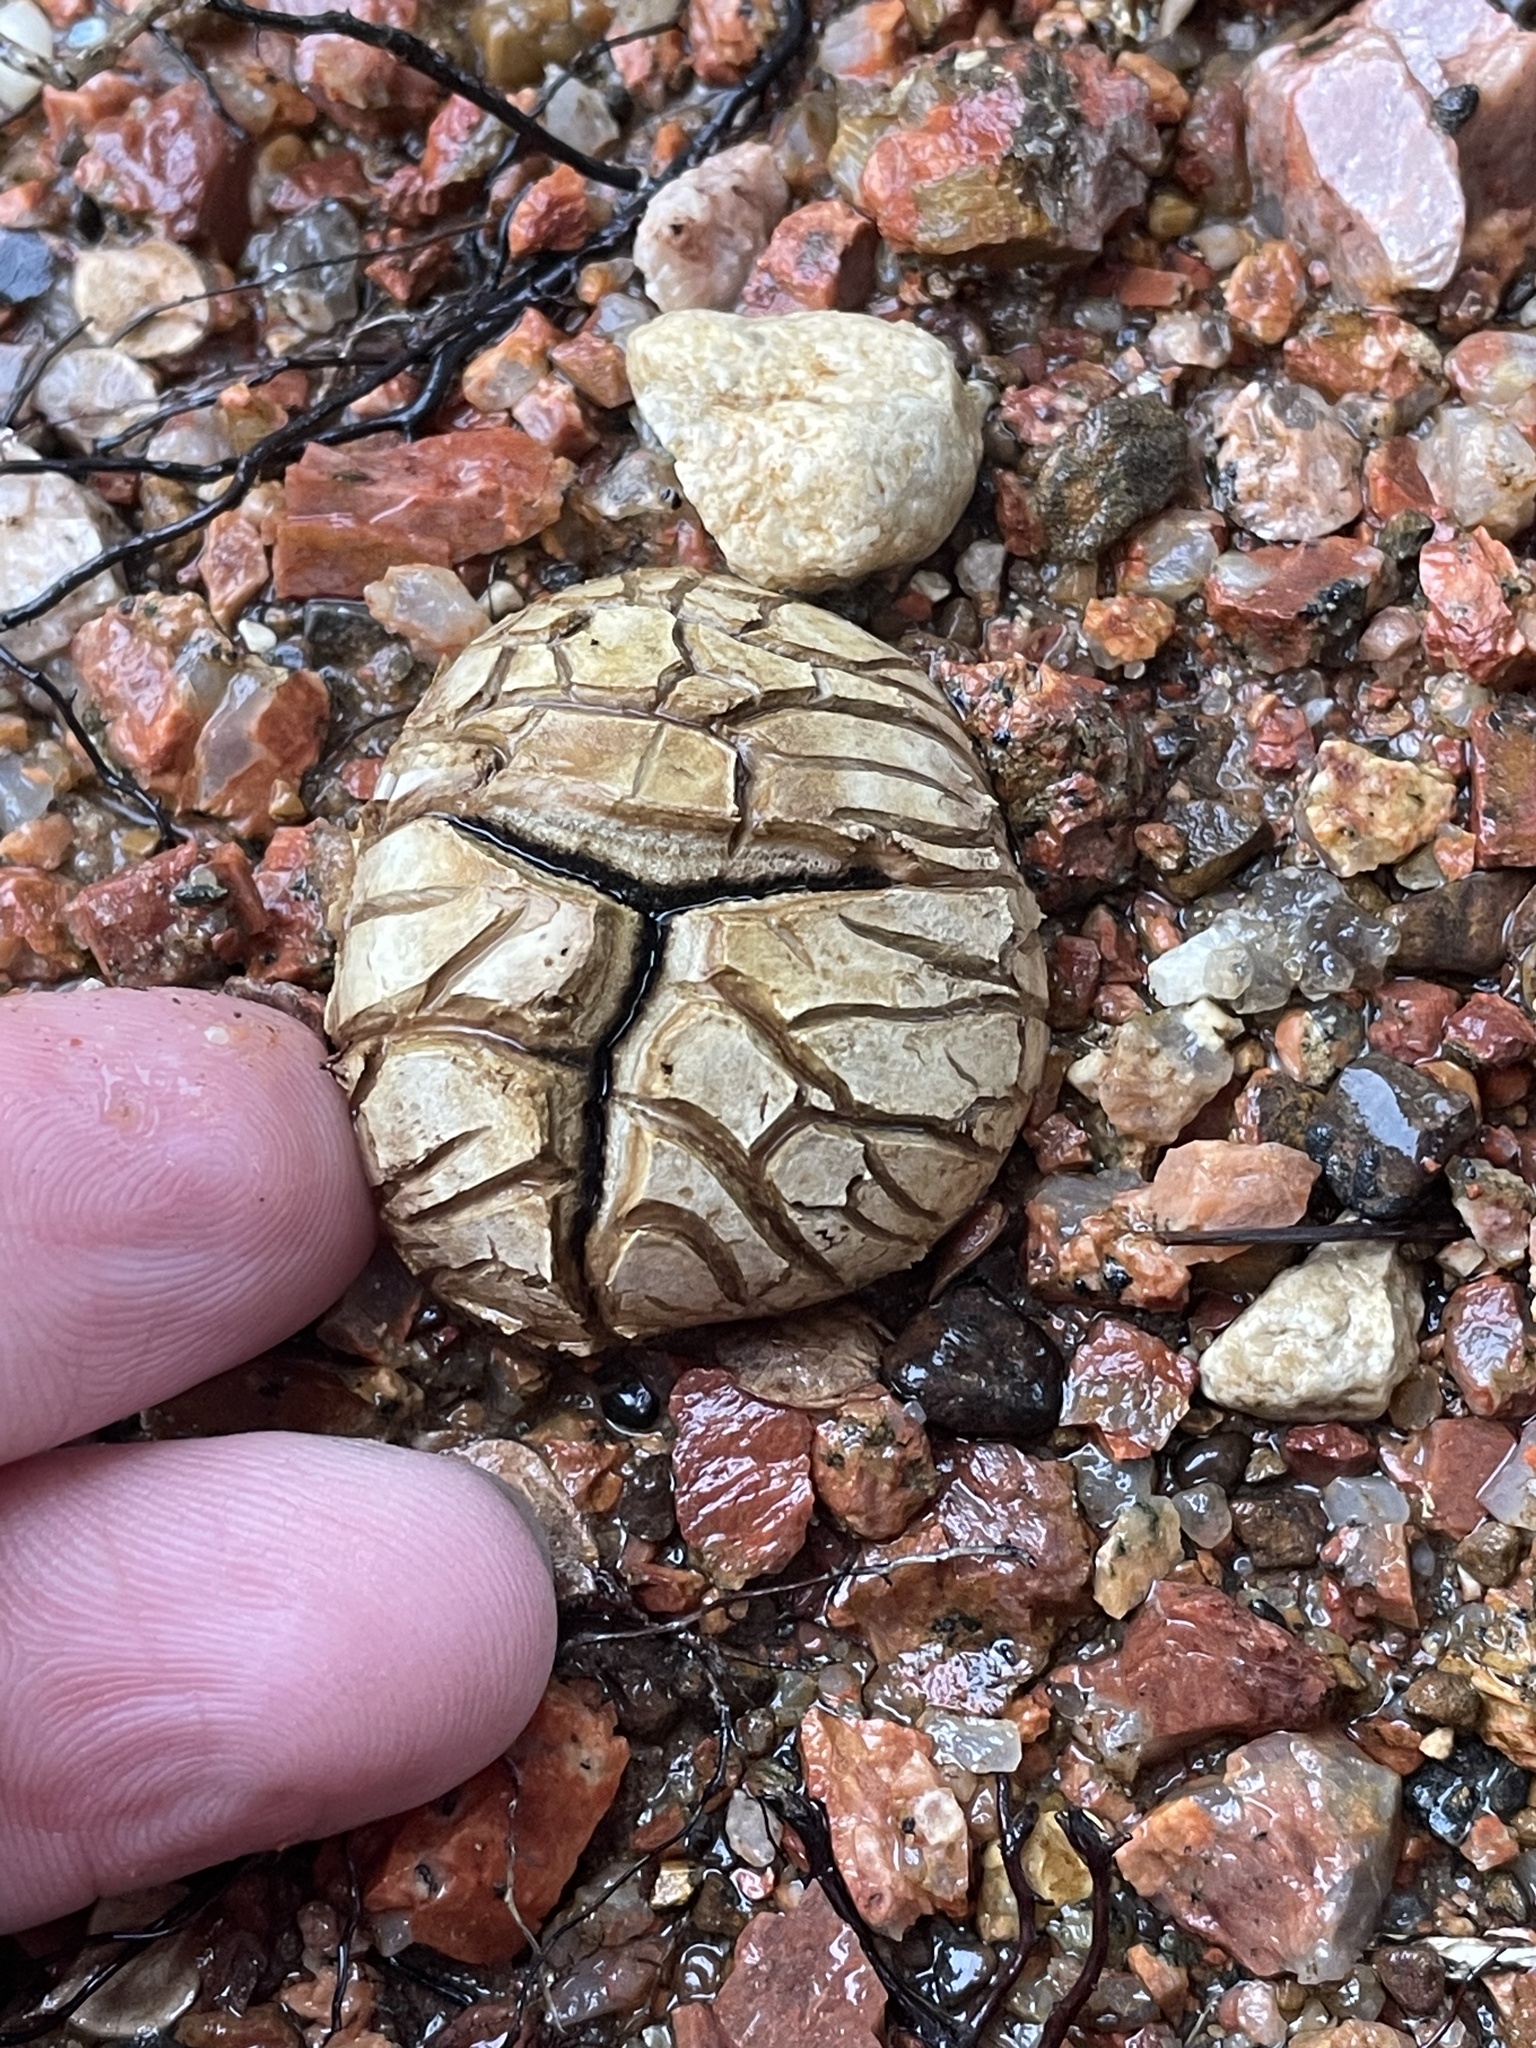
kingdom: Fungi
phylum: Basidiomycota
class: Agaricomycetes
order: Boletales
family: Sclerodermataceae
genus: Scleroderma
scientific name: Scleroderma polyrhizum
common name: Many-rooted earthball
